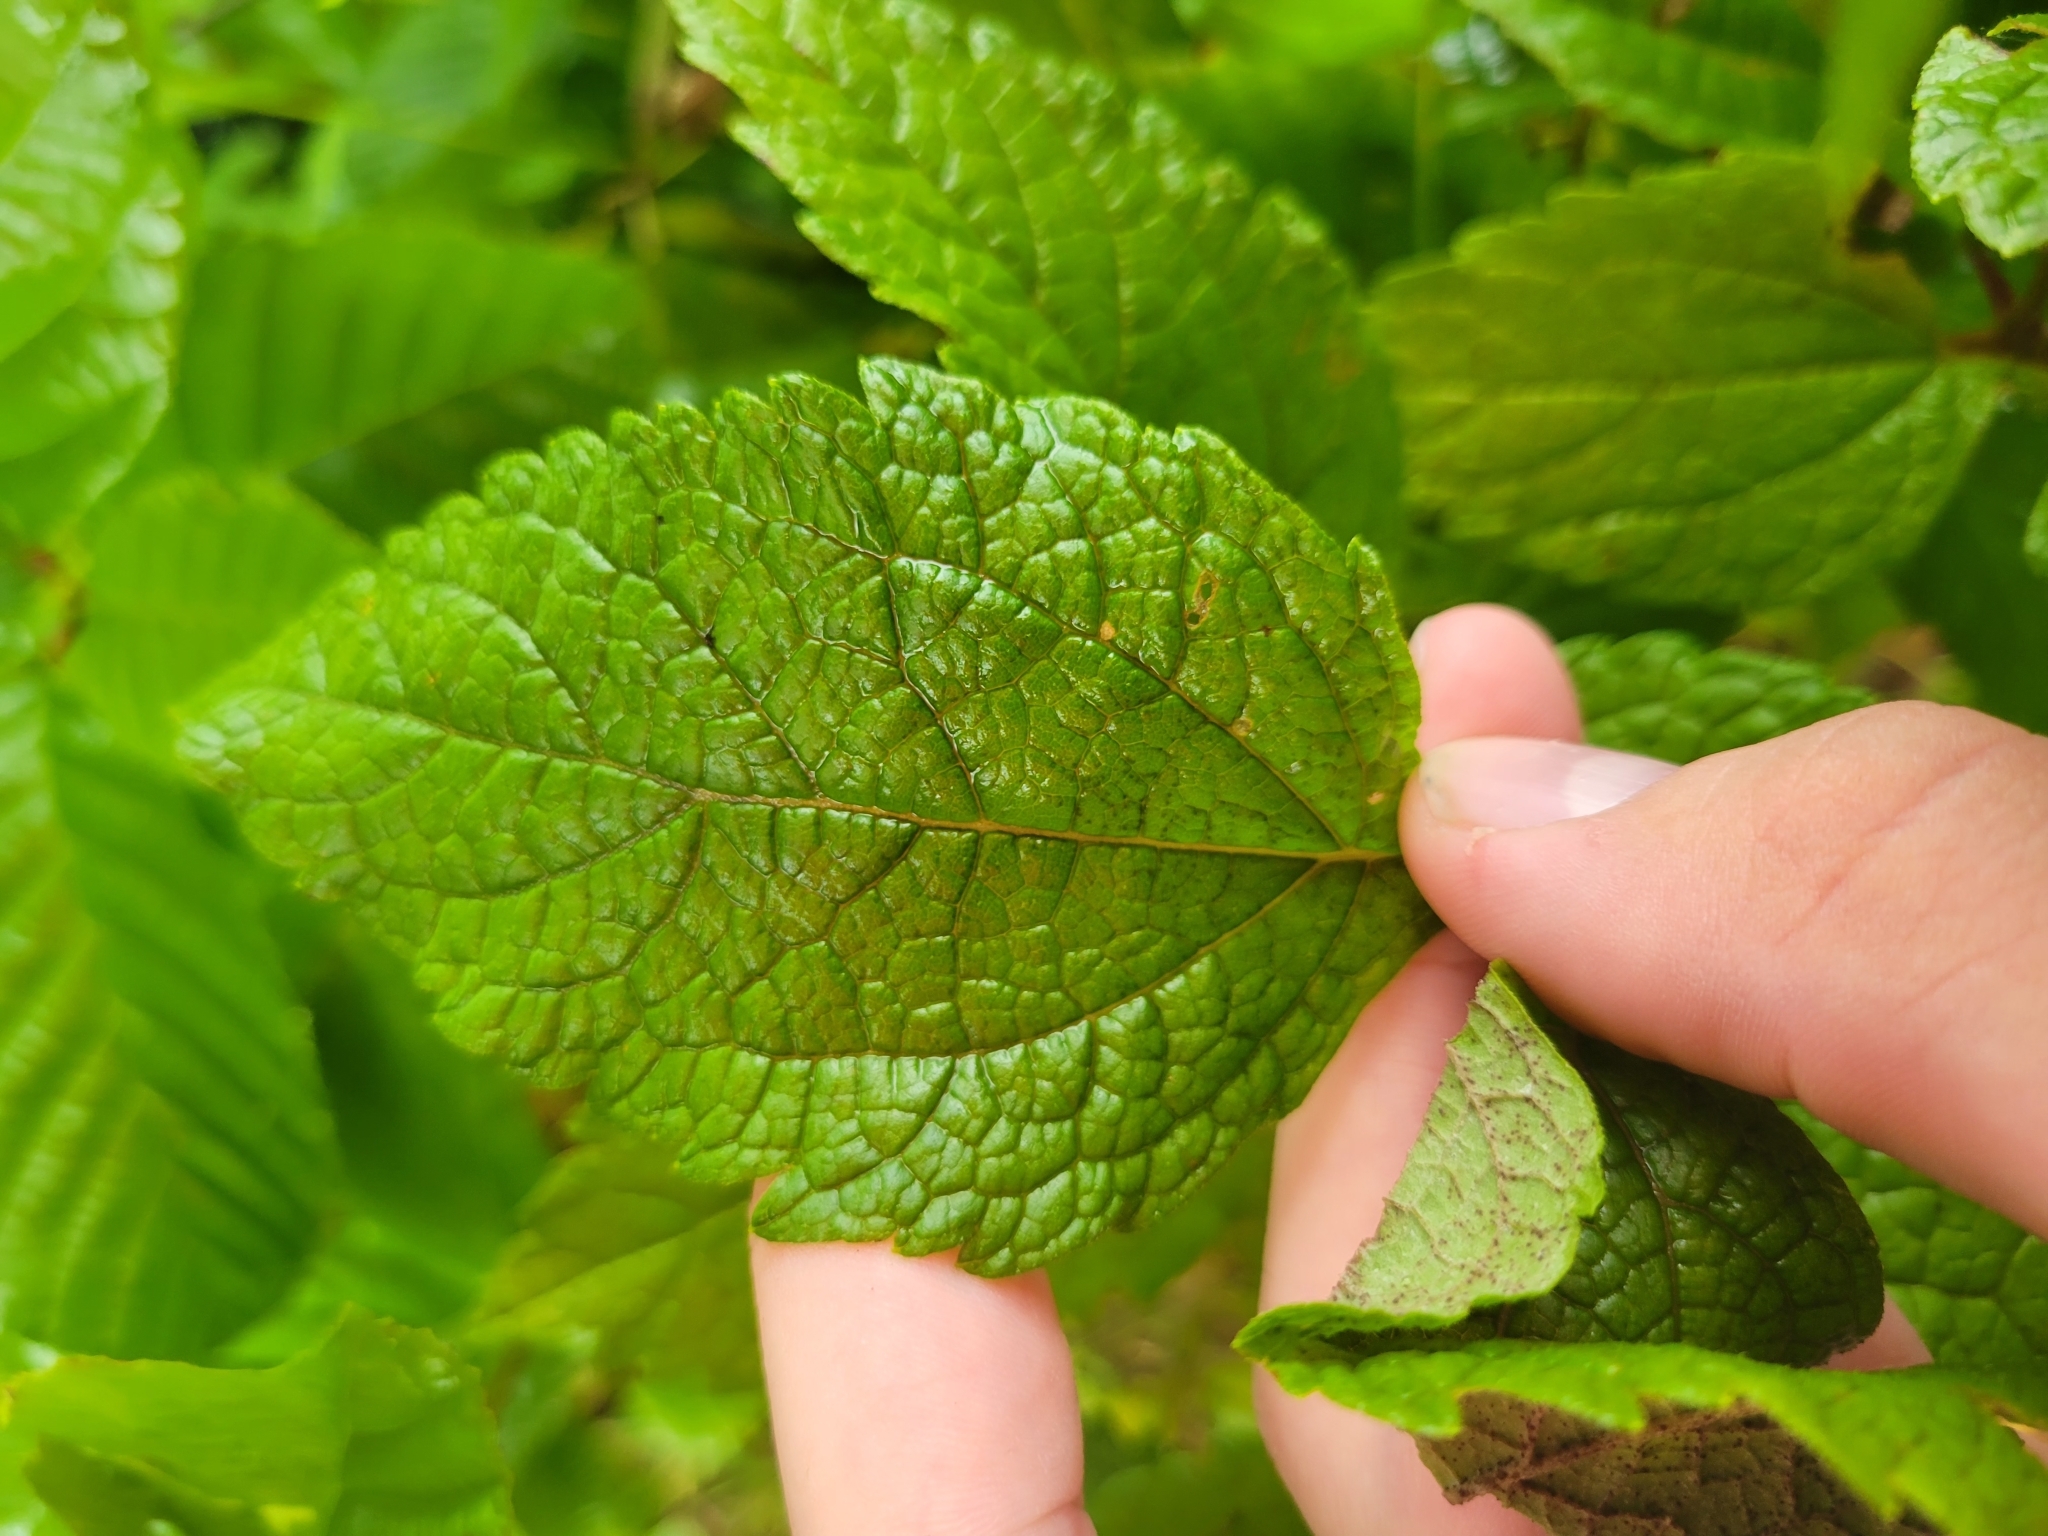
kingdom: Plantae
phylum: Tracheophyta
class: Magnoliopsida
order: Asterales
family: Asteraceae
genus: Eutrochium
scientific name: Eutrochium dubium
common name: Coastal plain joe pye weed
